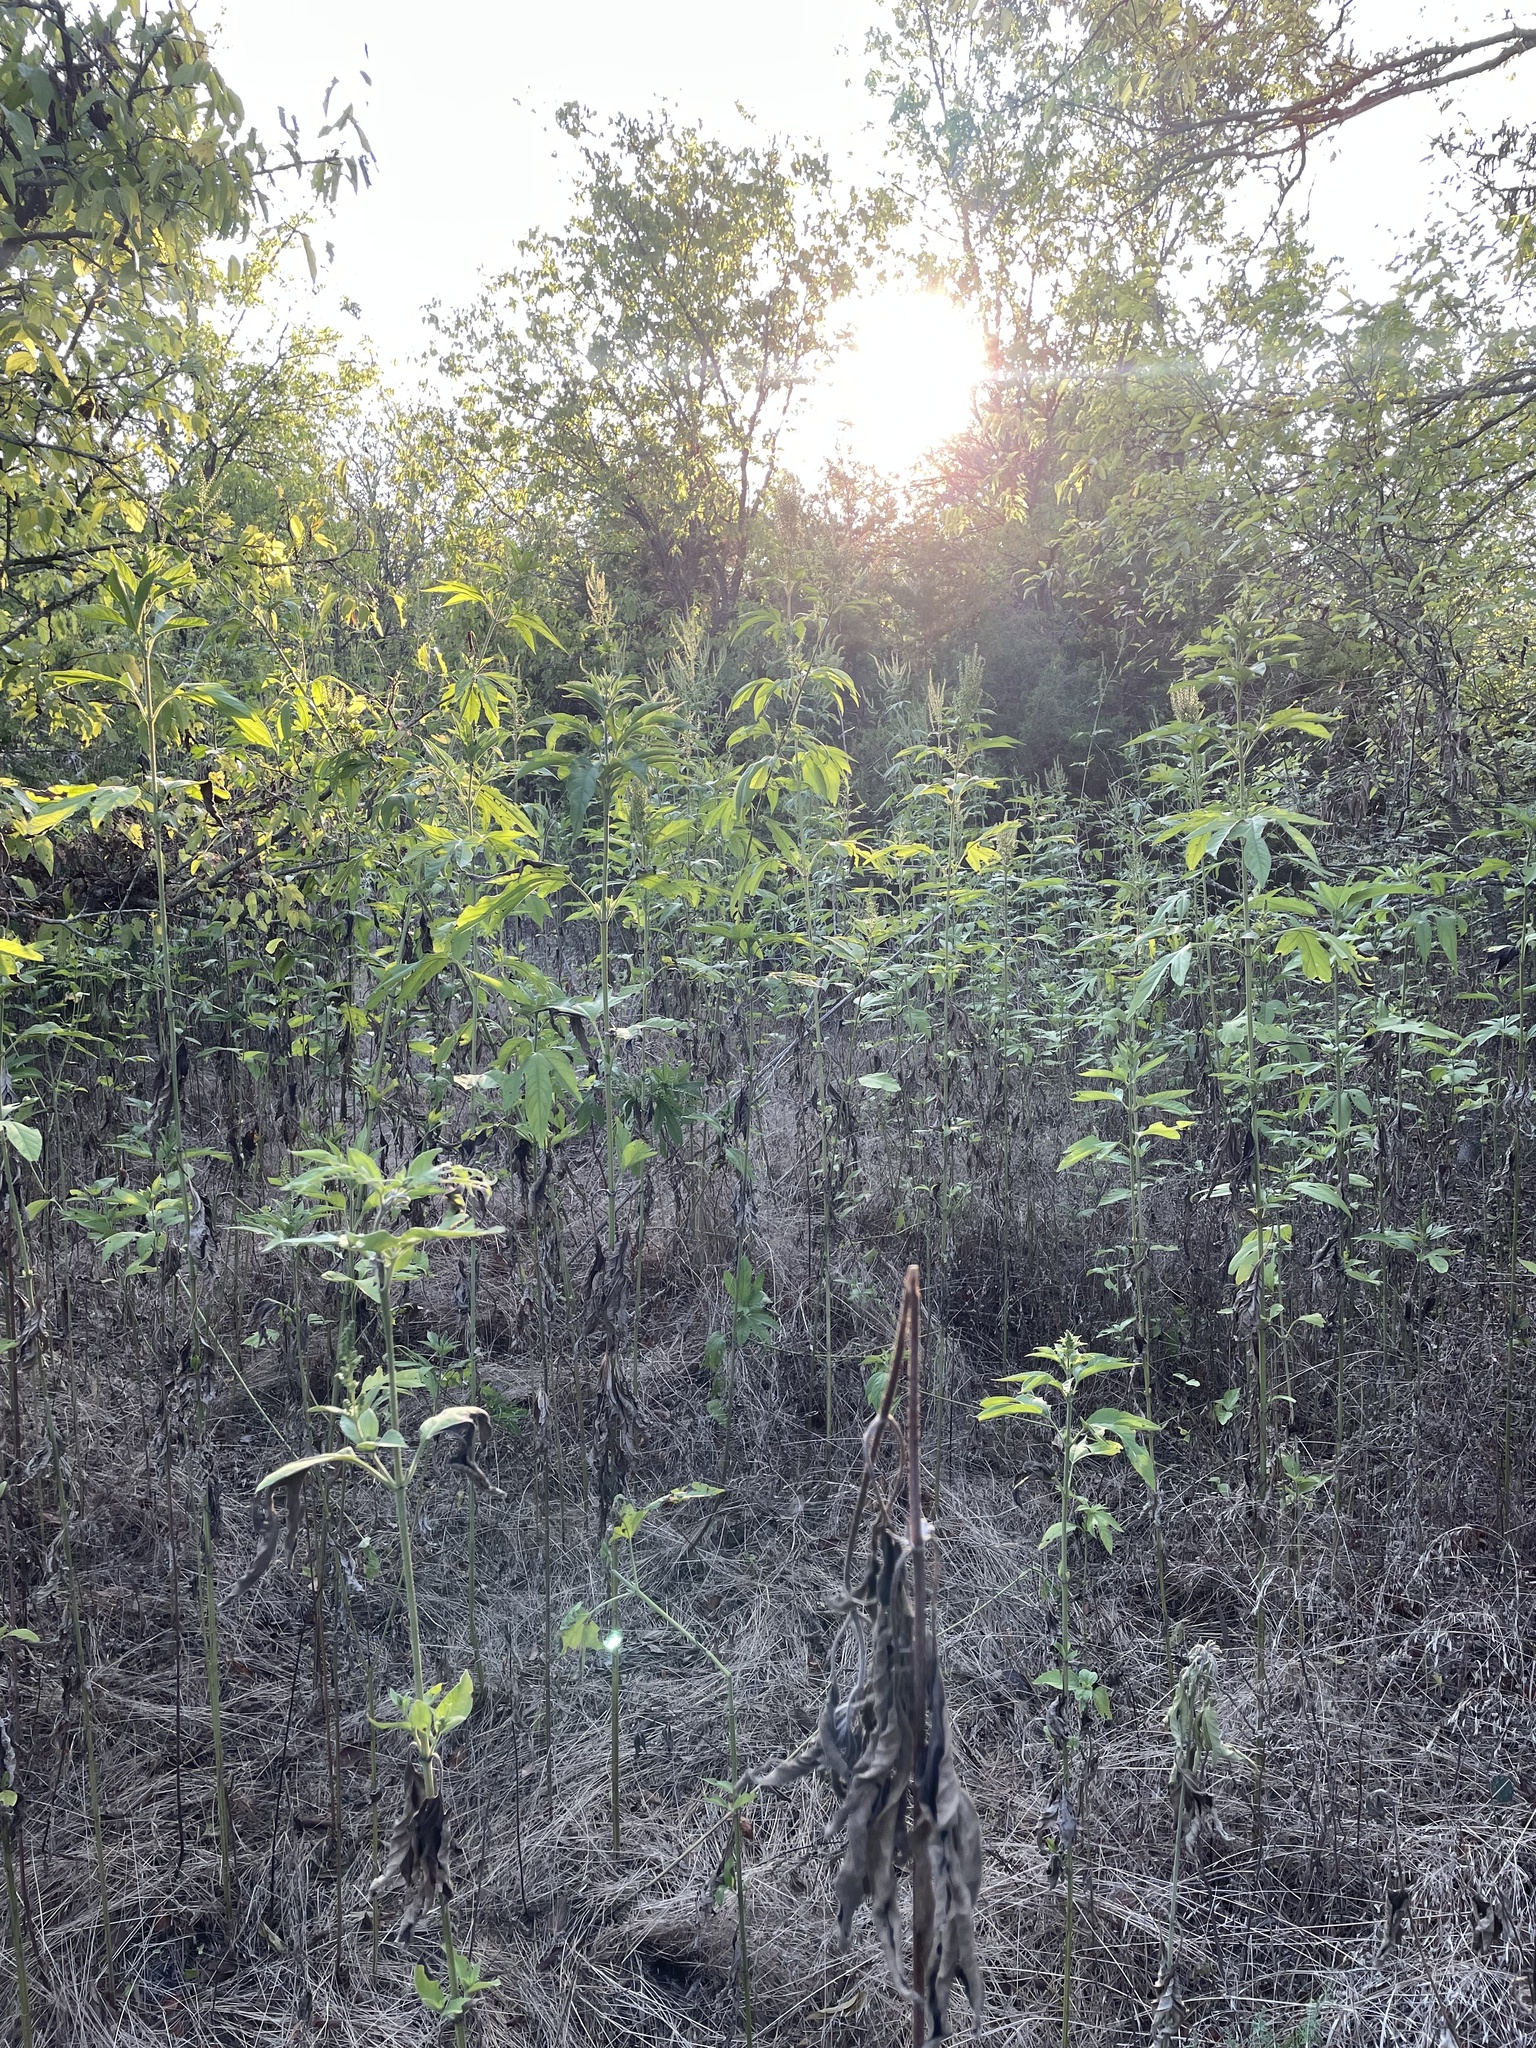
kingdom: Plantae
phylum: Tracheophyta
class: Magnoliopsida
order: Asterales
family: Asteraceae
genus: Ambrosia
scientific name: Ambrosia trifida
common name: Giant ragweed
